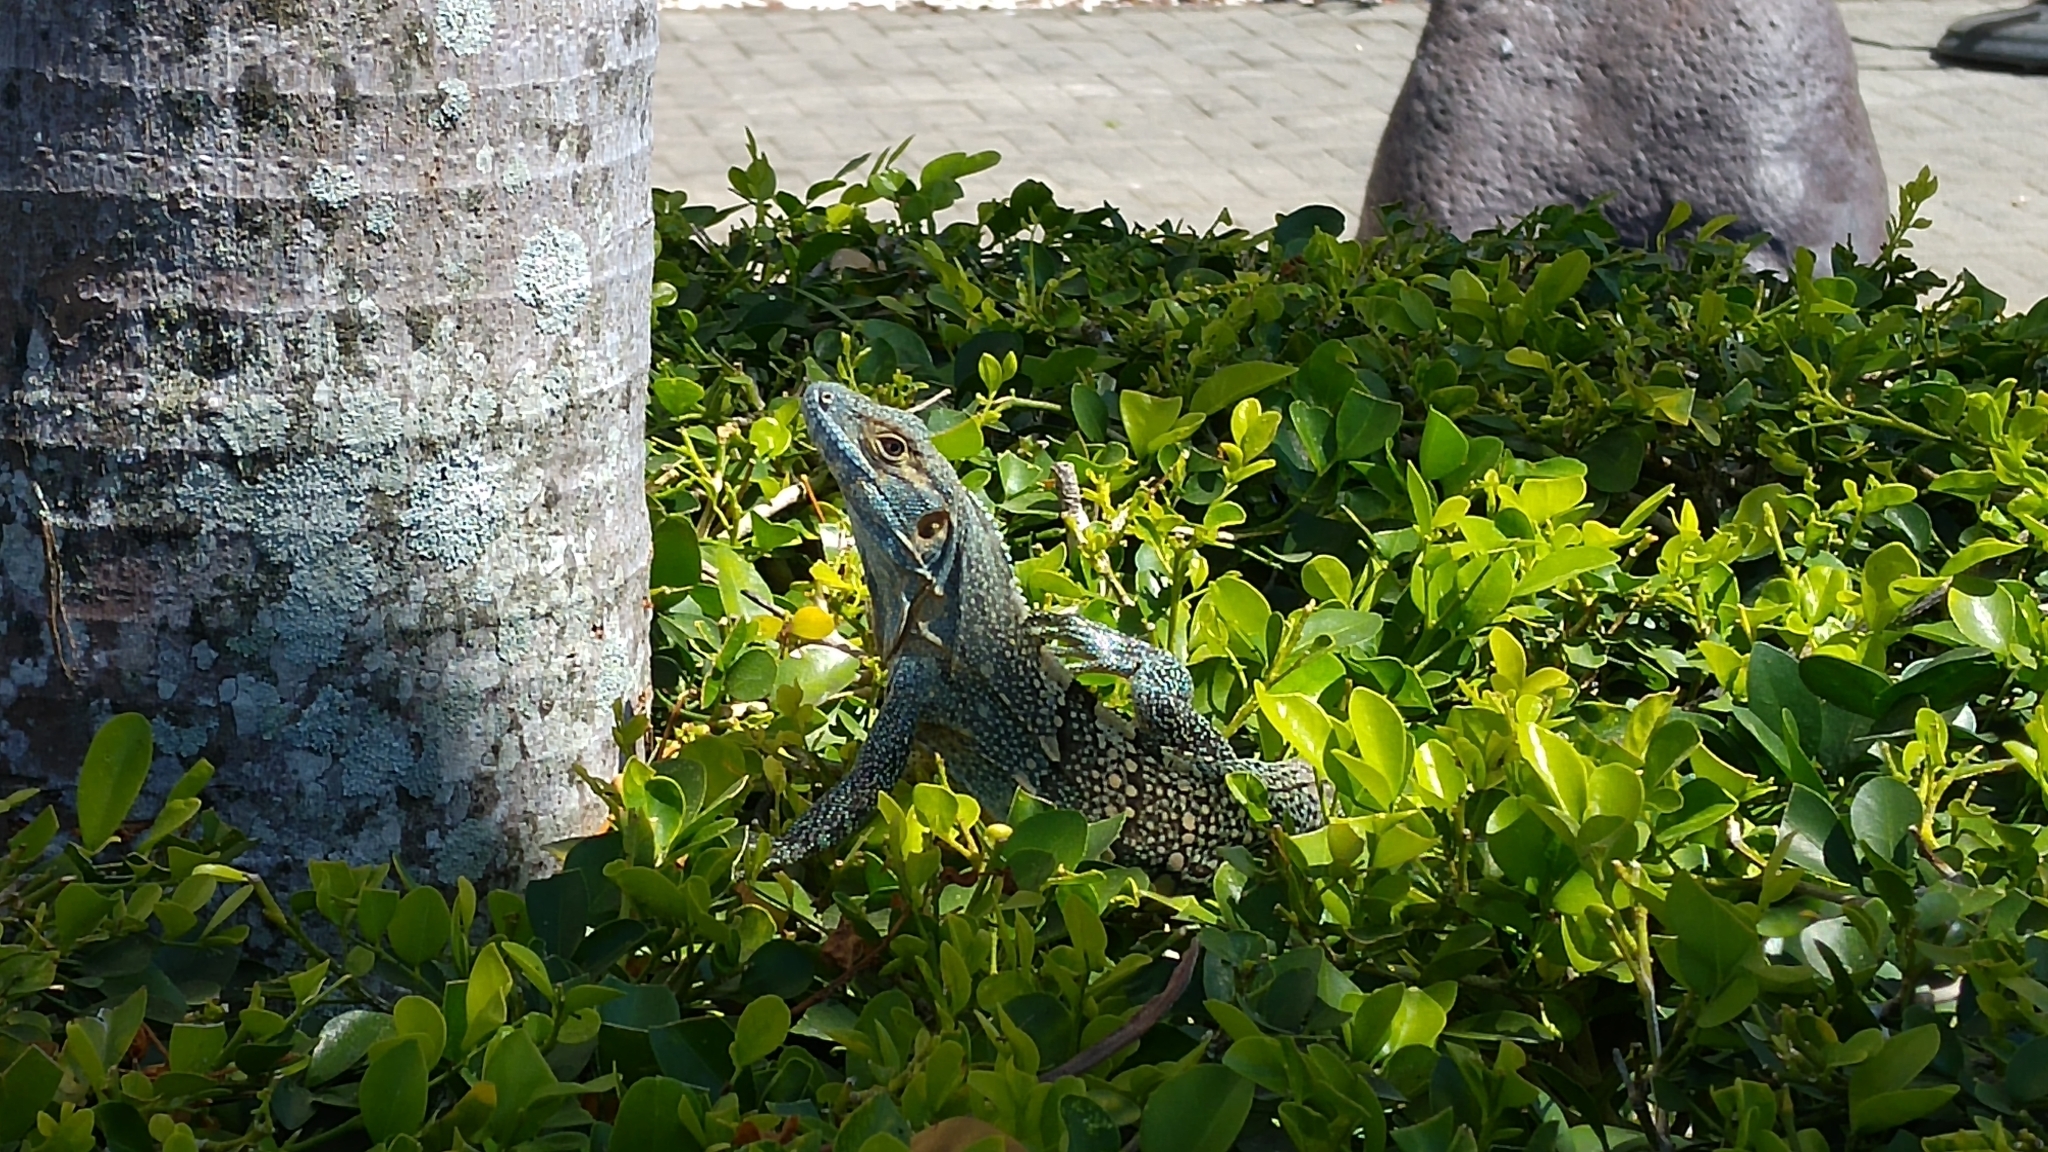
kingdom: Animalia
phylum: Chordata
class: Squamata
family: Iguanidae
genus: Ctenosaura
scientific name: Ctenosaura similis
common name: Black spiny-tailed iguana
